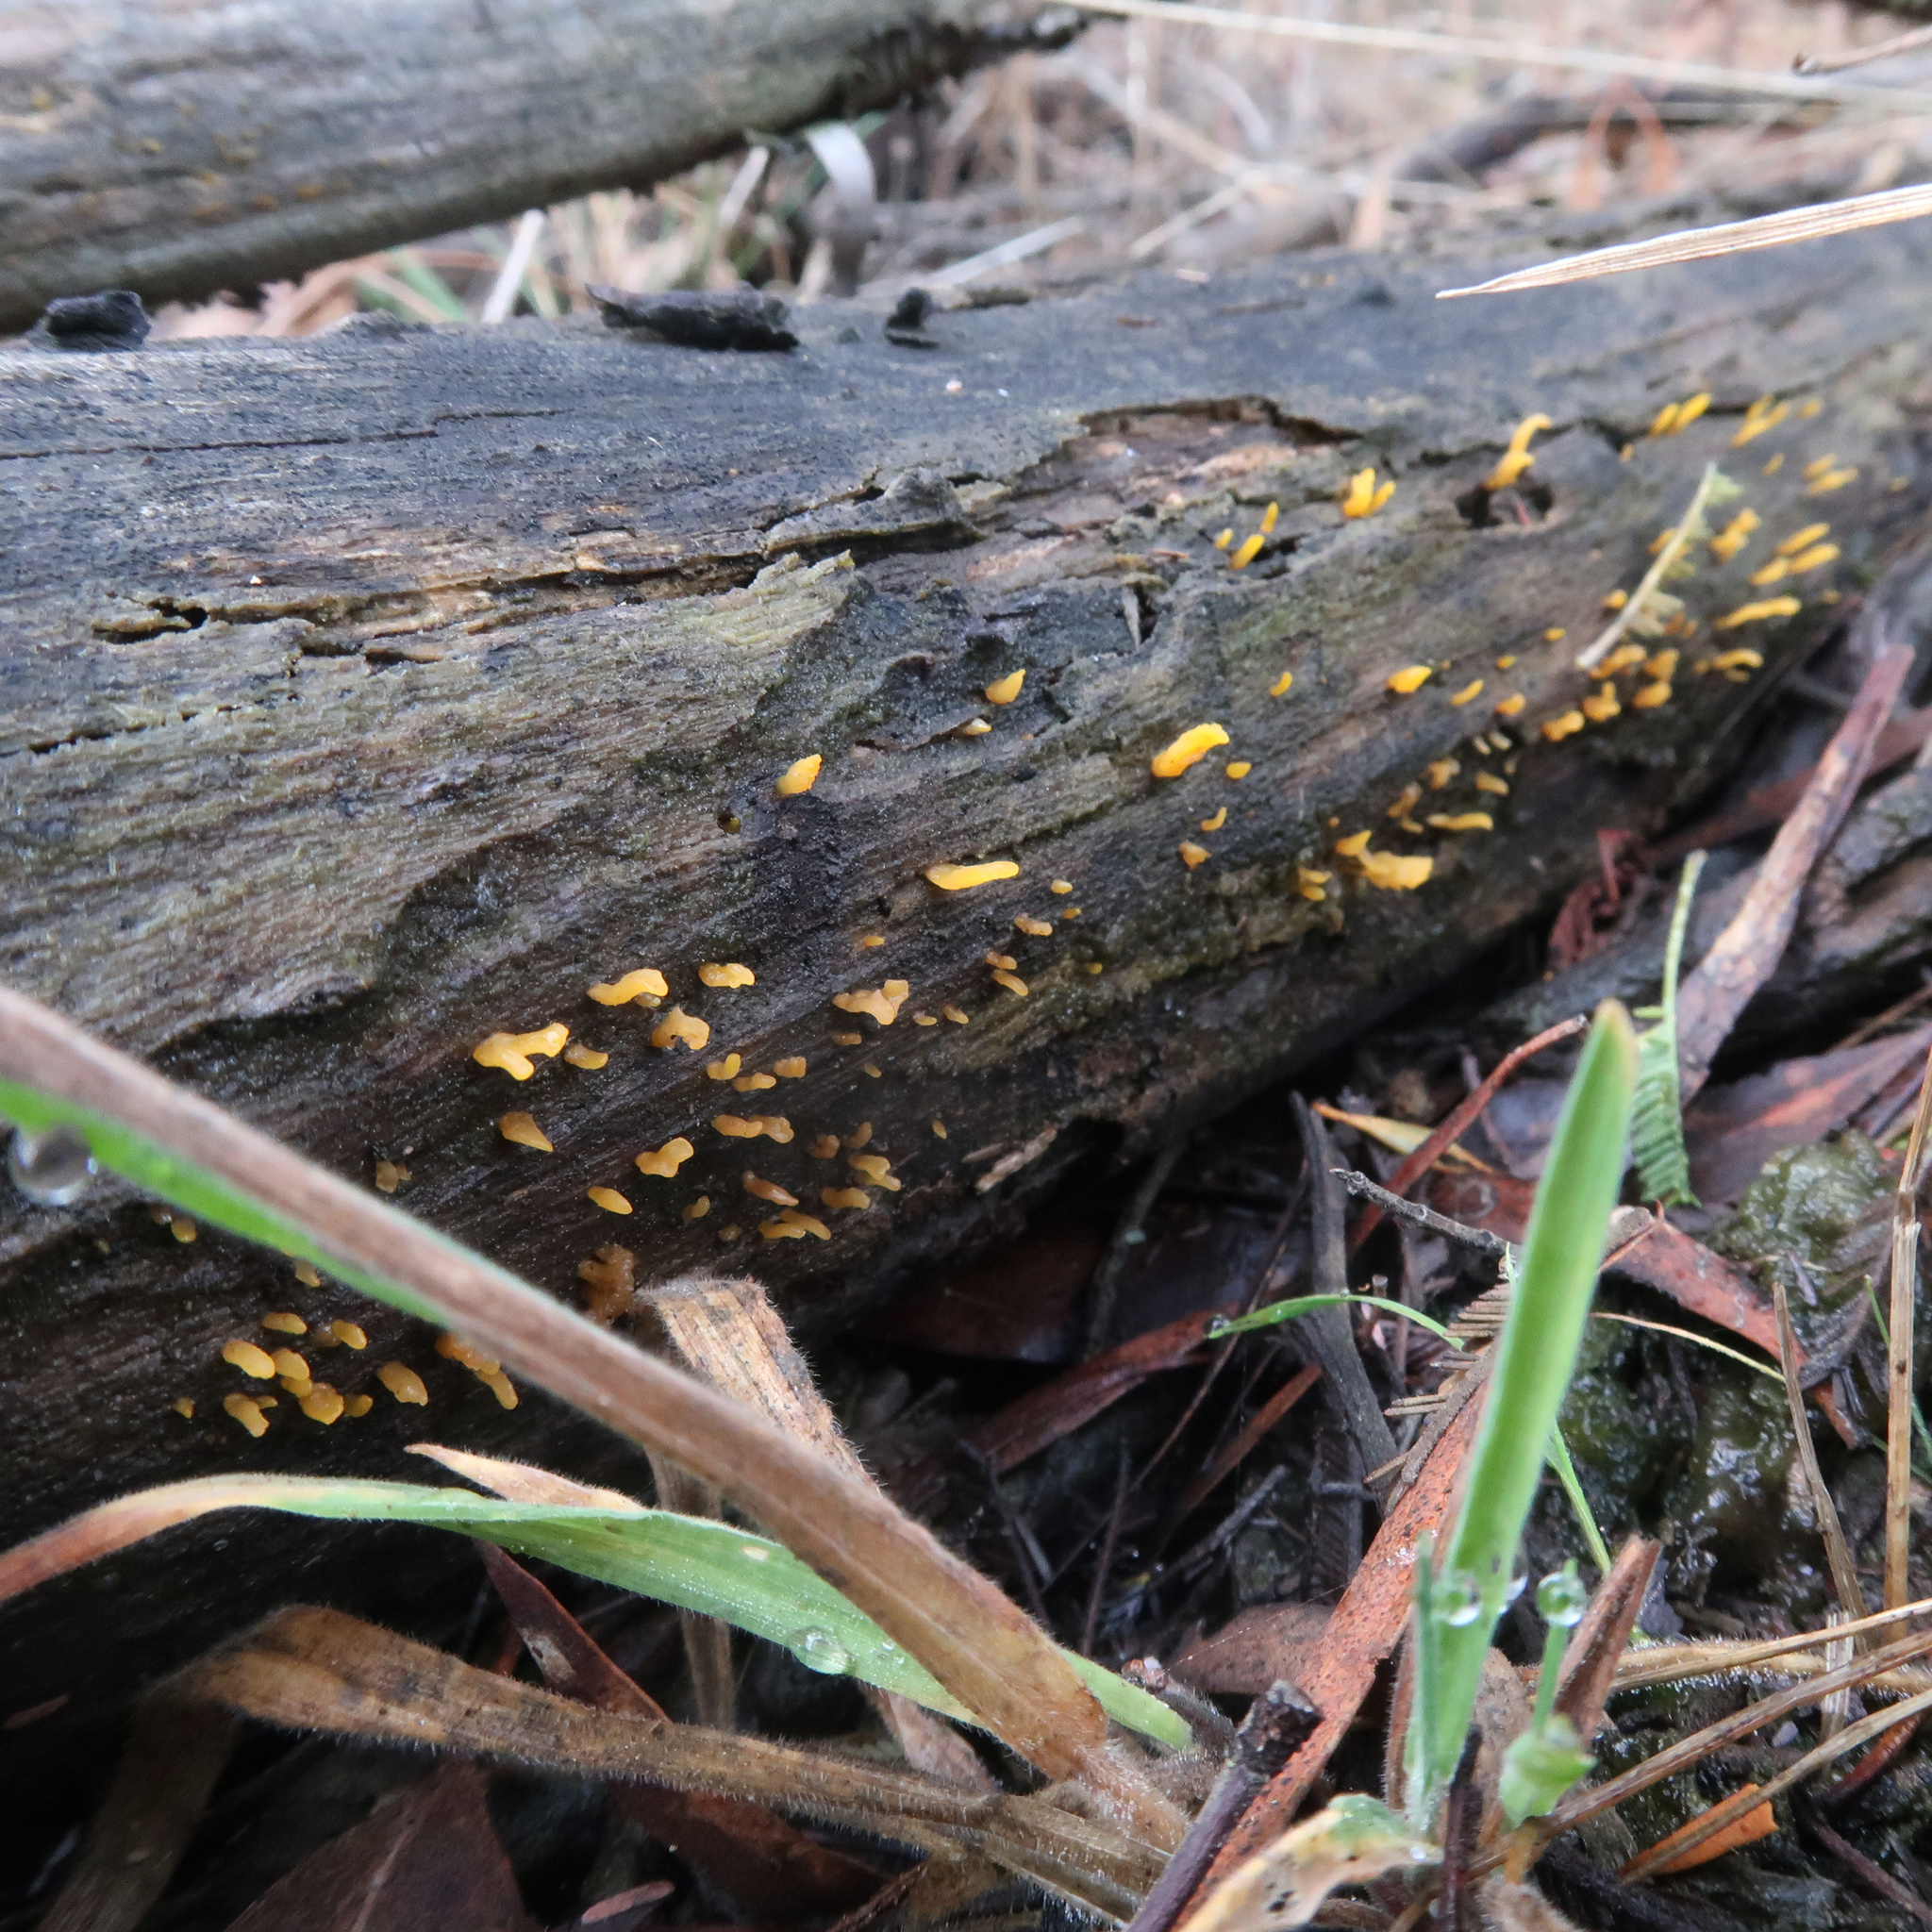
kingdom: Fungi
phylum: Basidiomycota
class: Dacrymycetes
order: Dacrymycetales
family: Dacrymycetaceae
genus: Calocera
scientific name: Calocera guepinioides
